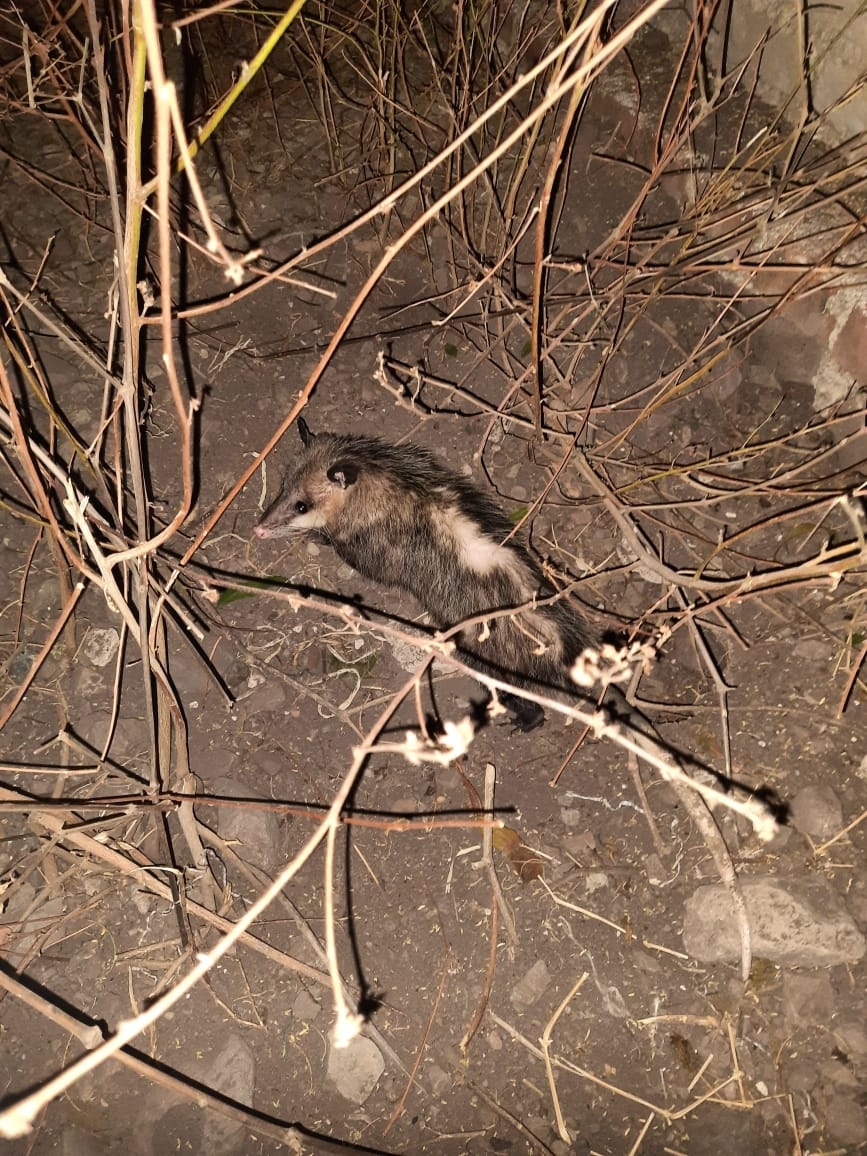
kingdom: Animalia
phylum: Chordata
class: Mammalia
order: Didelphimorphia
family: Didelphidae
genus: Didelphis
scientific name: Didelphis virginiana
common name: Virginia opossum
